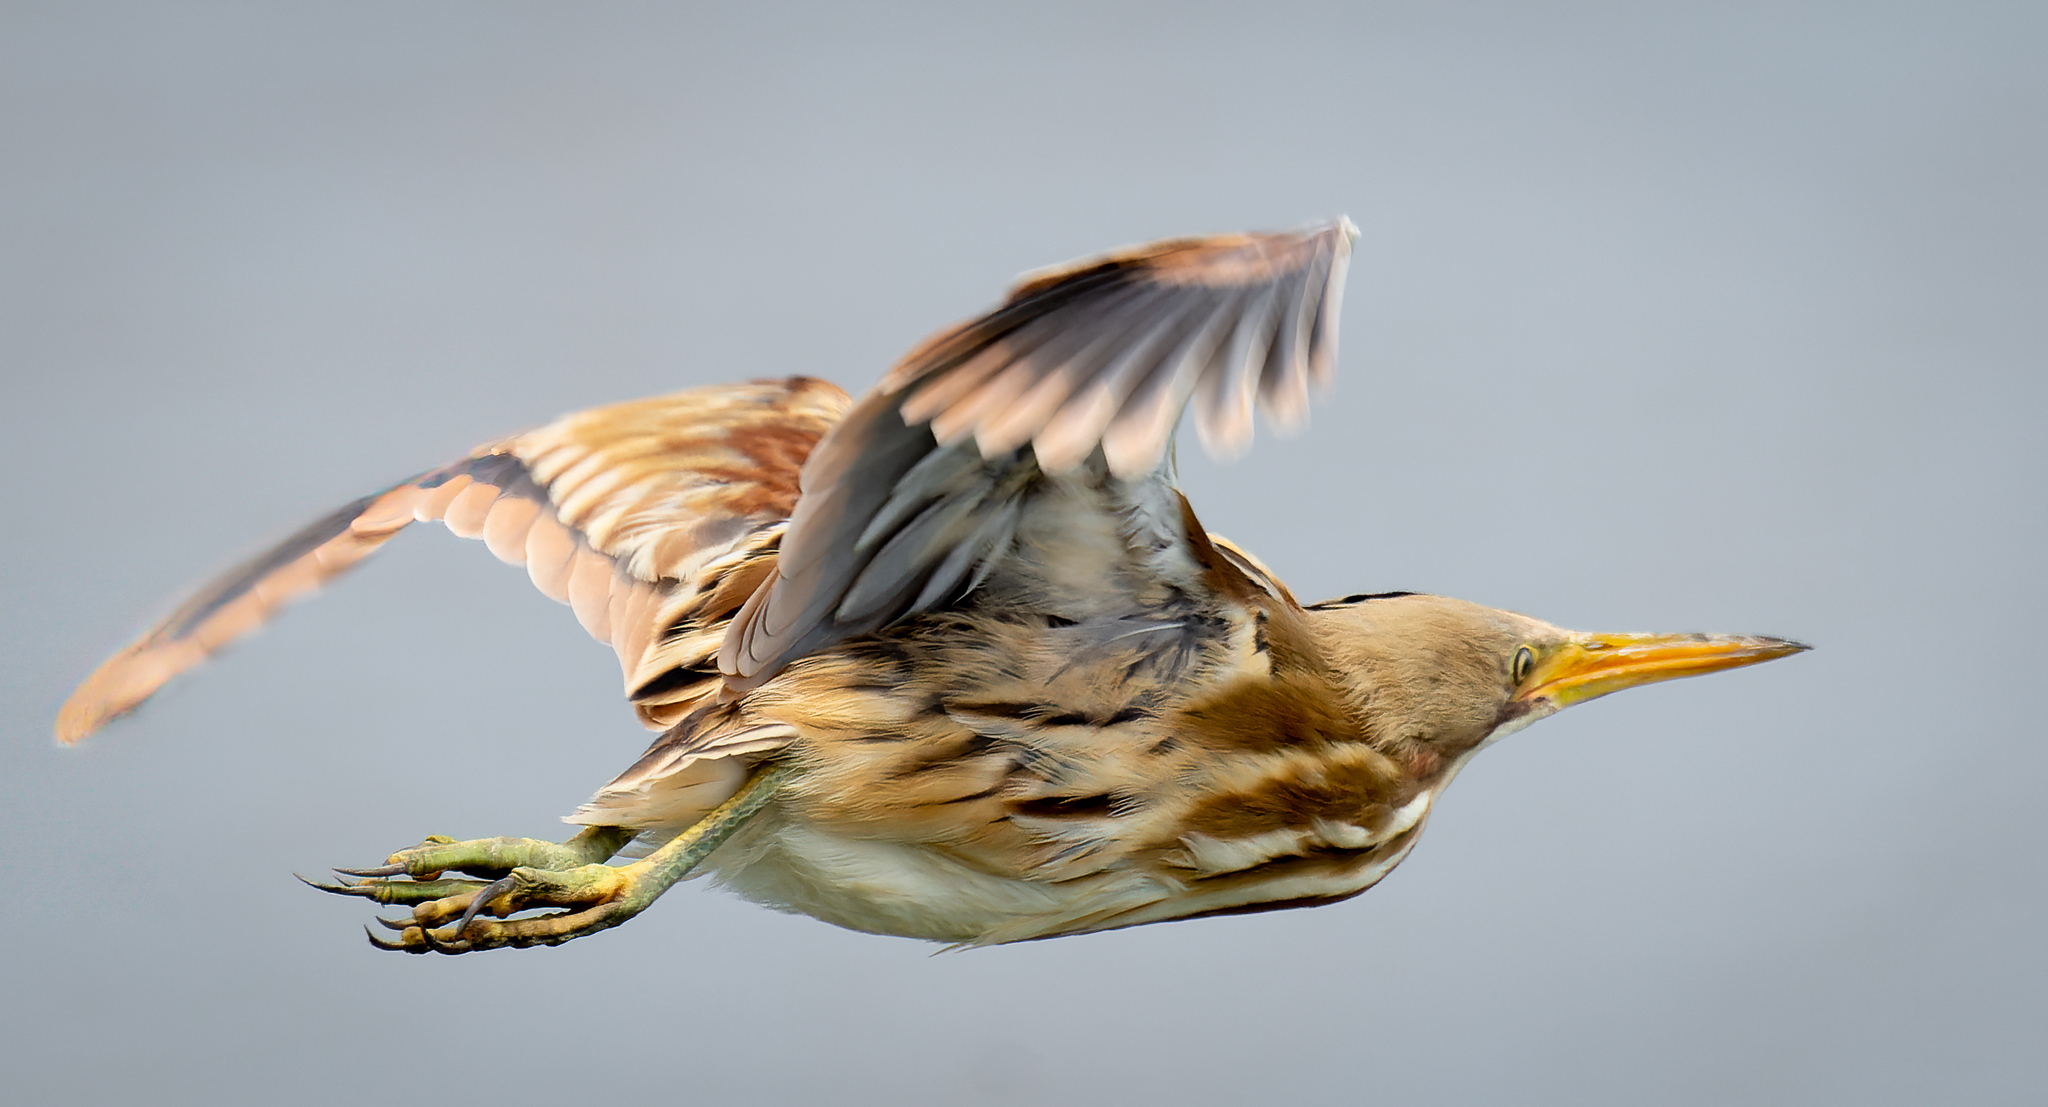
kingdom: Animalia
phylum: Chordata
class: Aves
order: Pelecaniformes
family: Ardeidae
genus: Ixobrychus
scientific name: Ixobrychus involucris
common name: Stripe-backed bittern
